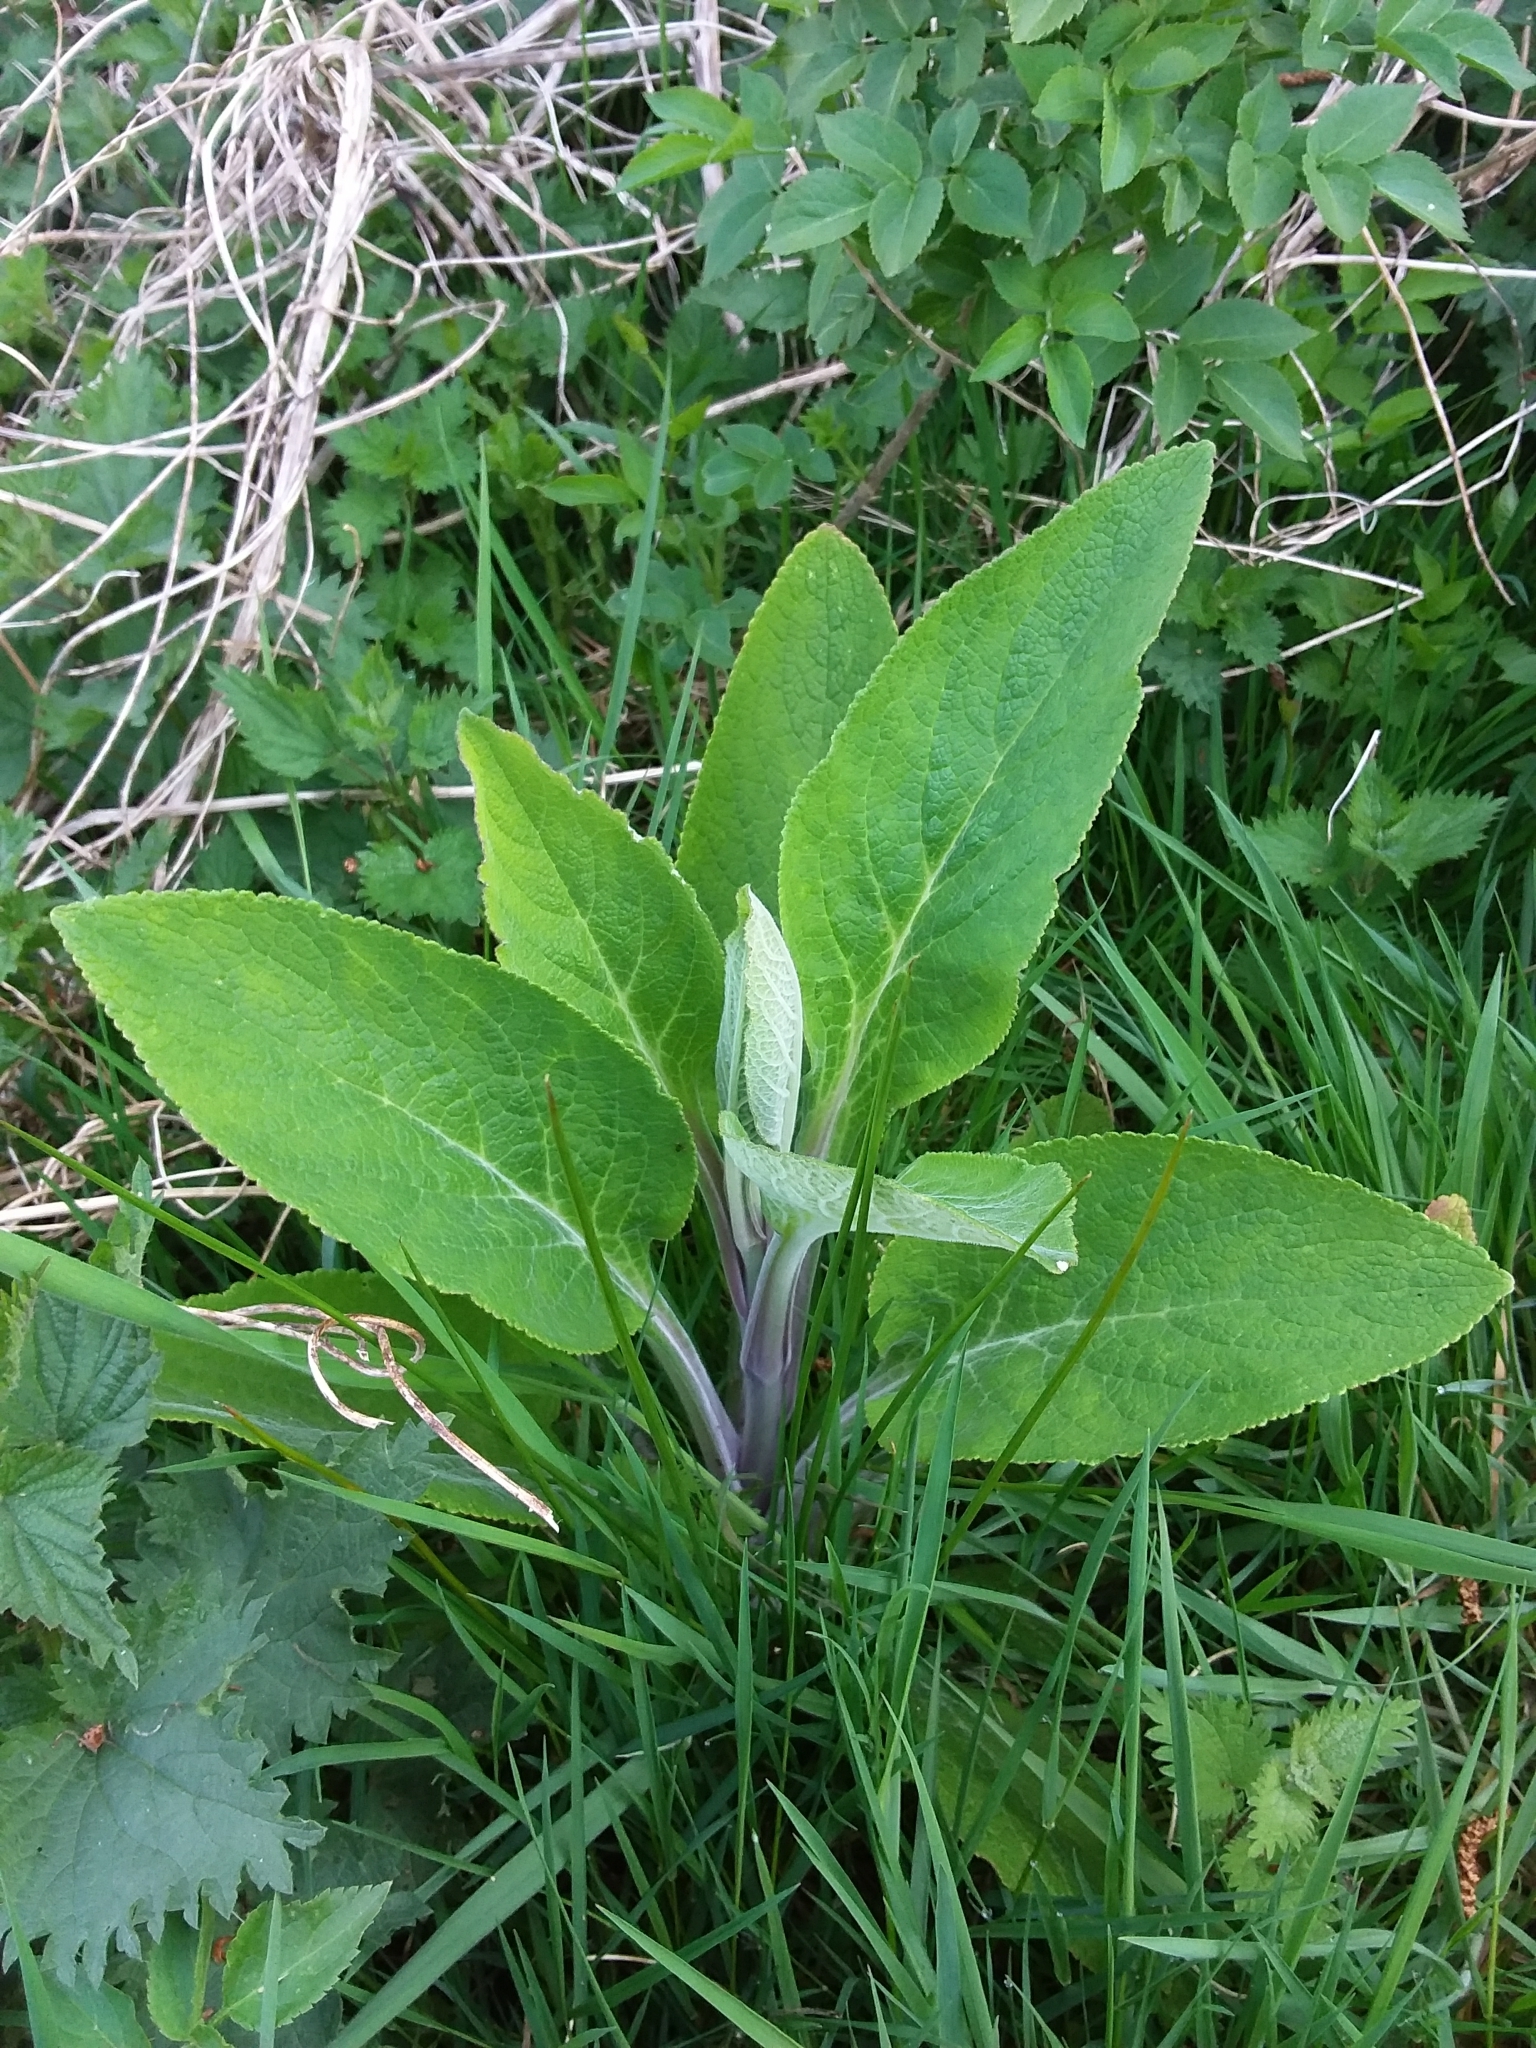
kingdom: Plantae
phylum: Tracheophyta
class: Magnoliopsida
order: Lamiales
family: Plantaginaceae
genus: Digitalis
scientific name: Digitalis purpurea
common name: Foxglove
